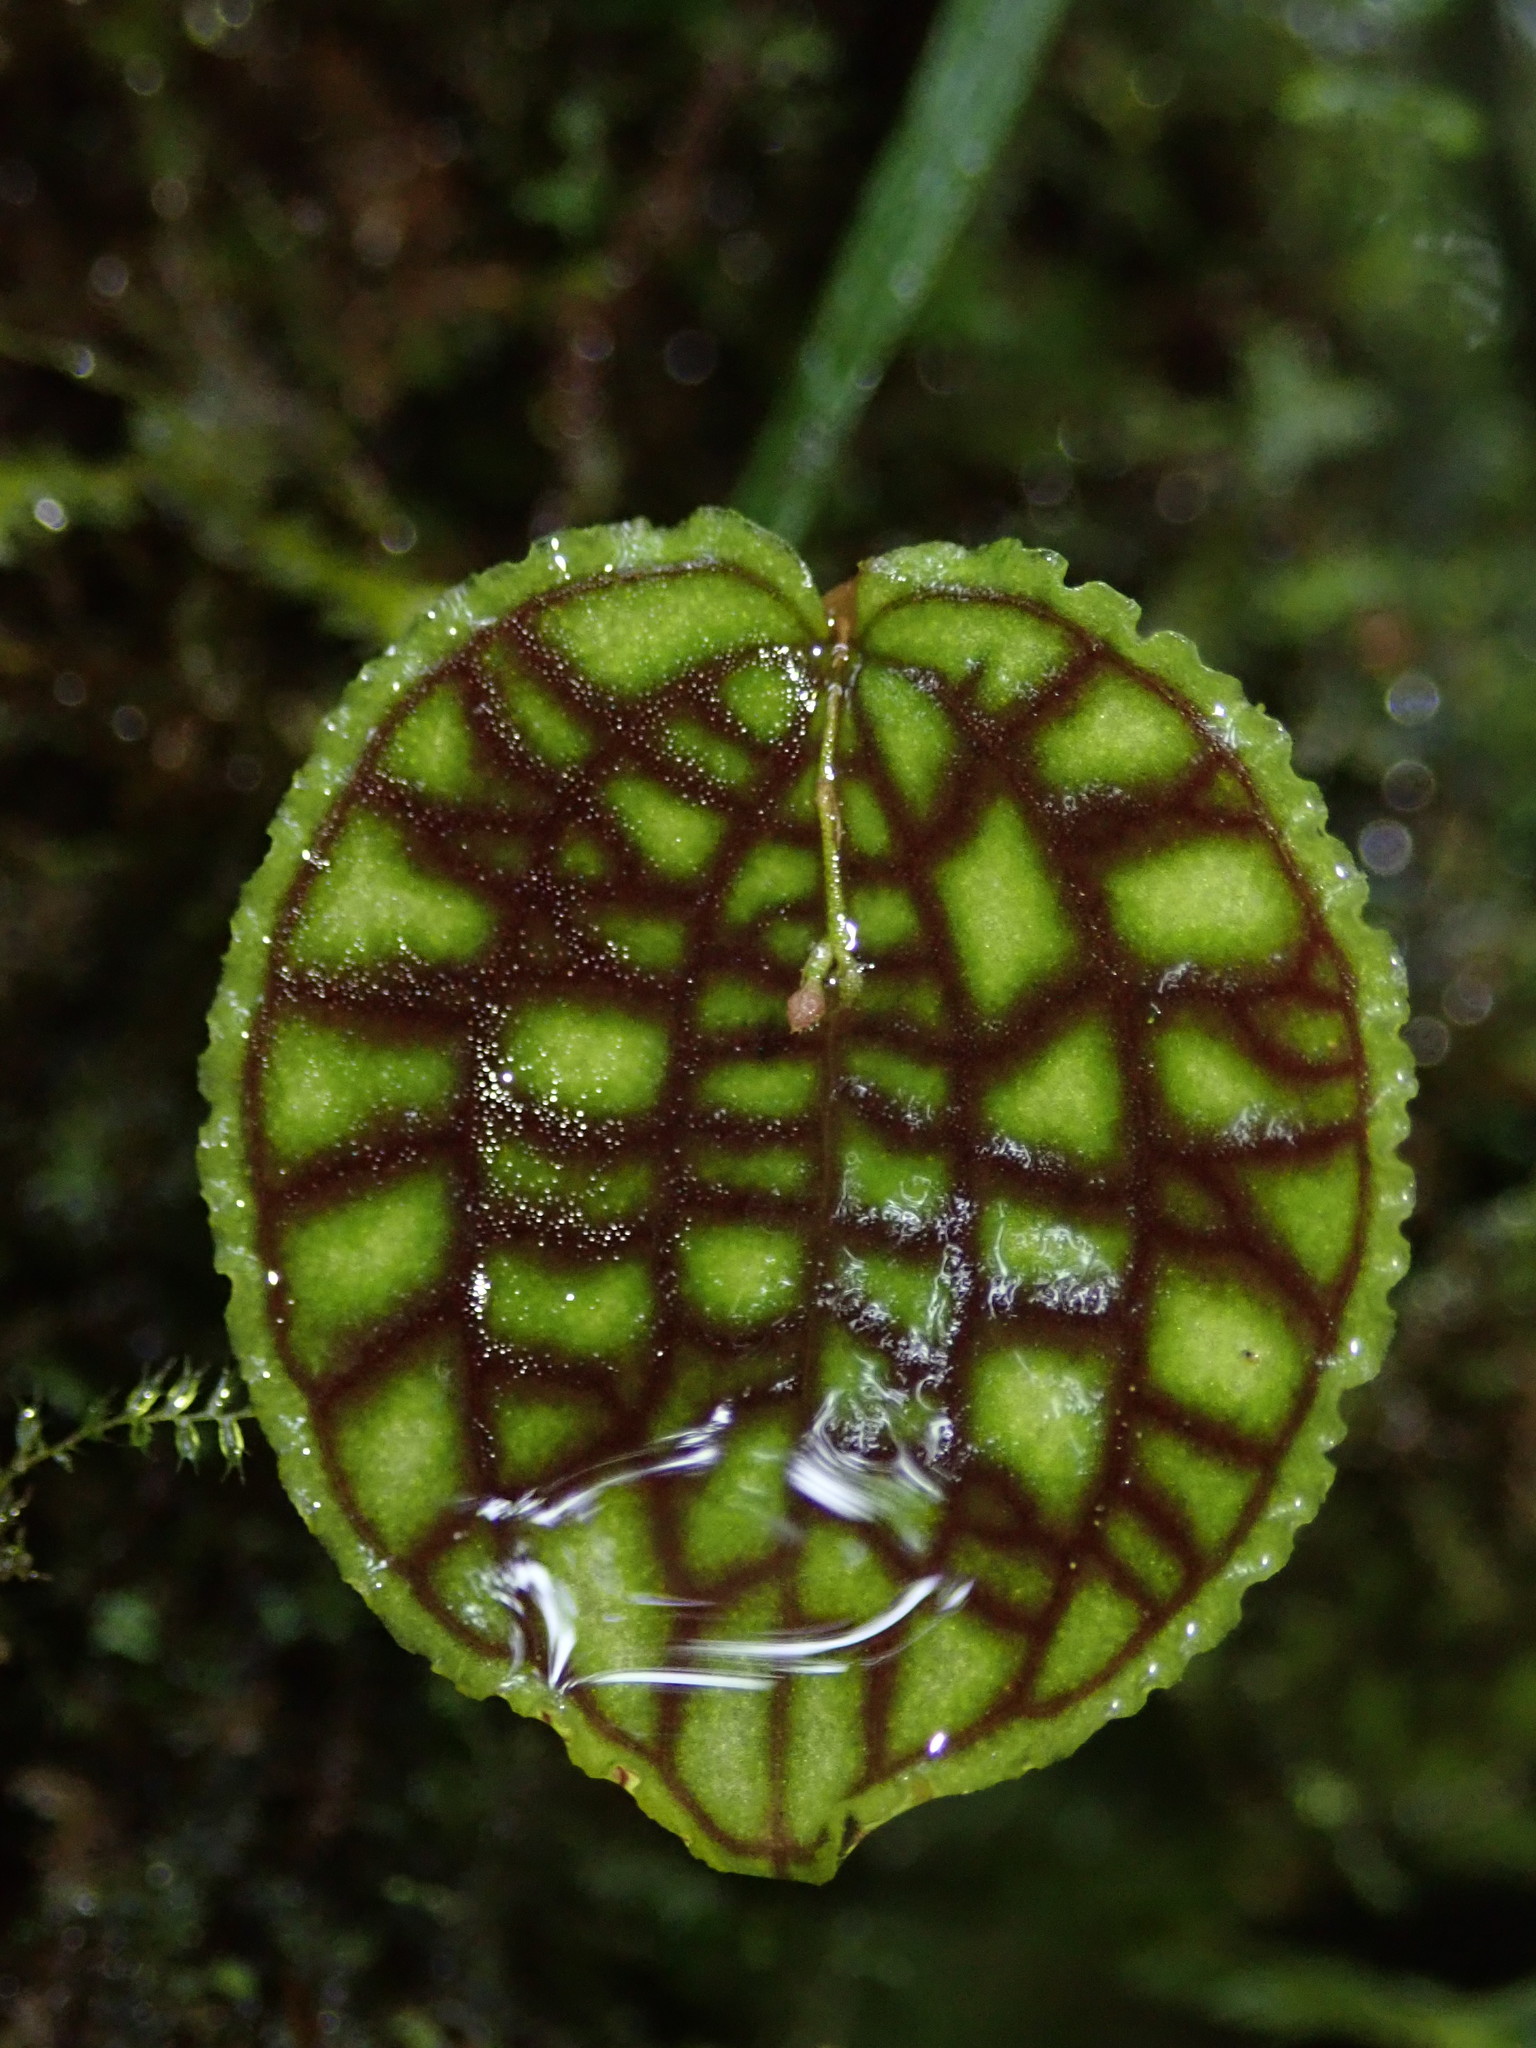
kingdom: Plantae
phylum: Tracheophyta
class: Liliopsida
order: Asparagales
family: Orchidaceae
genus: Lepanthes
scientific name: Lepanthes calodictyon
